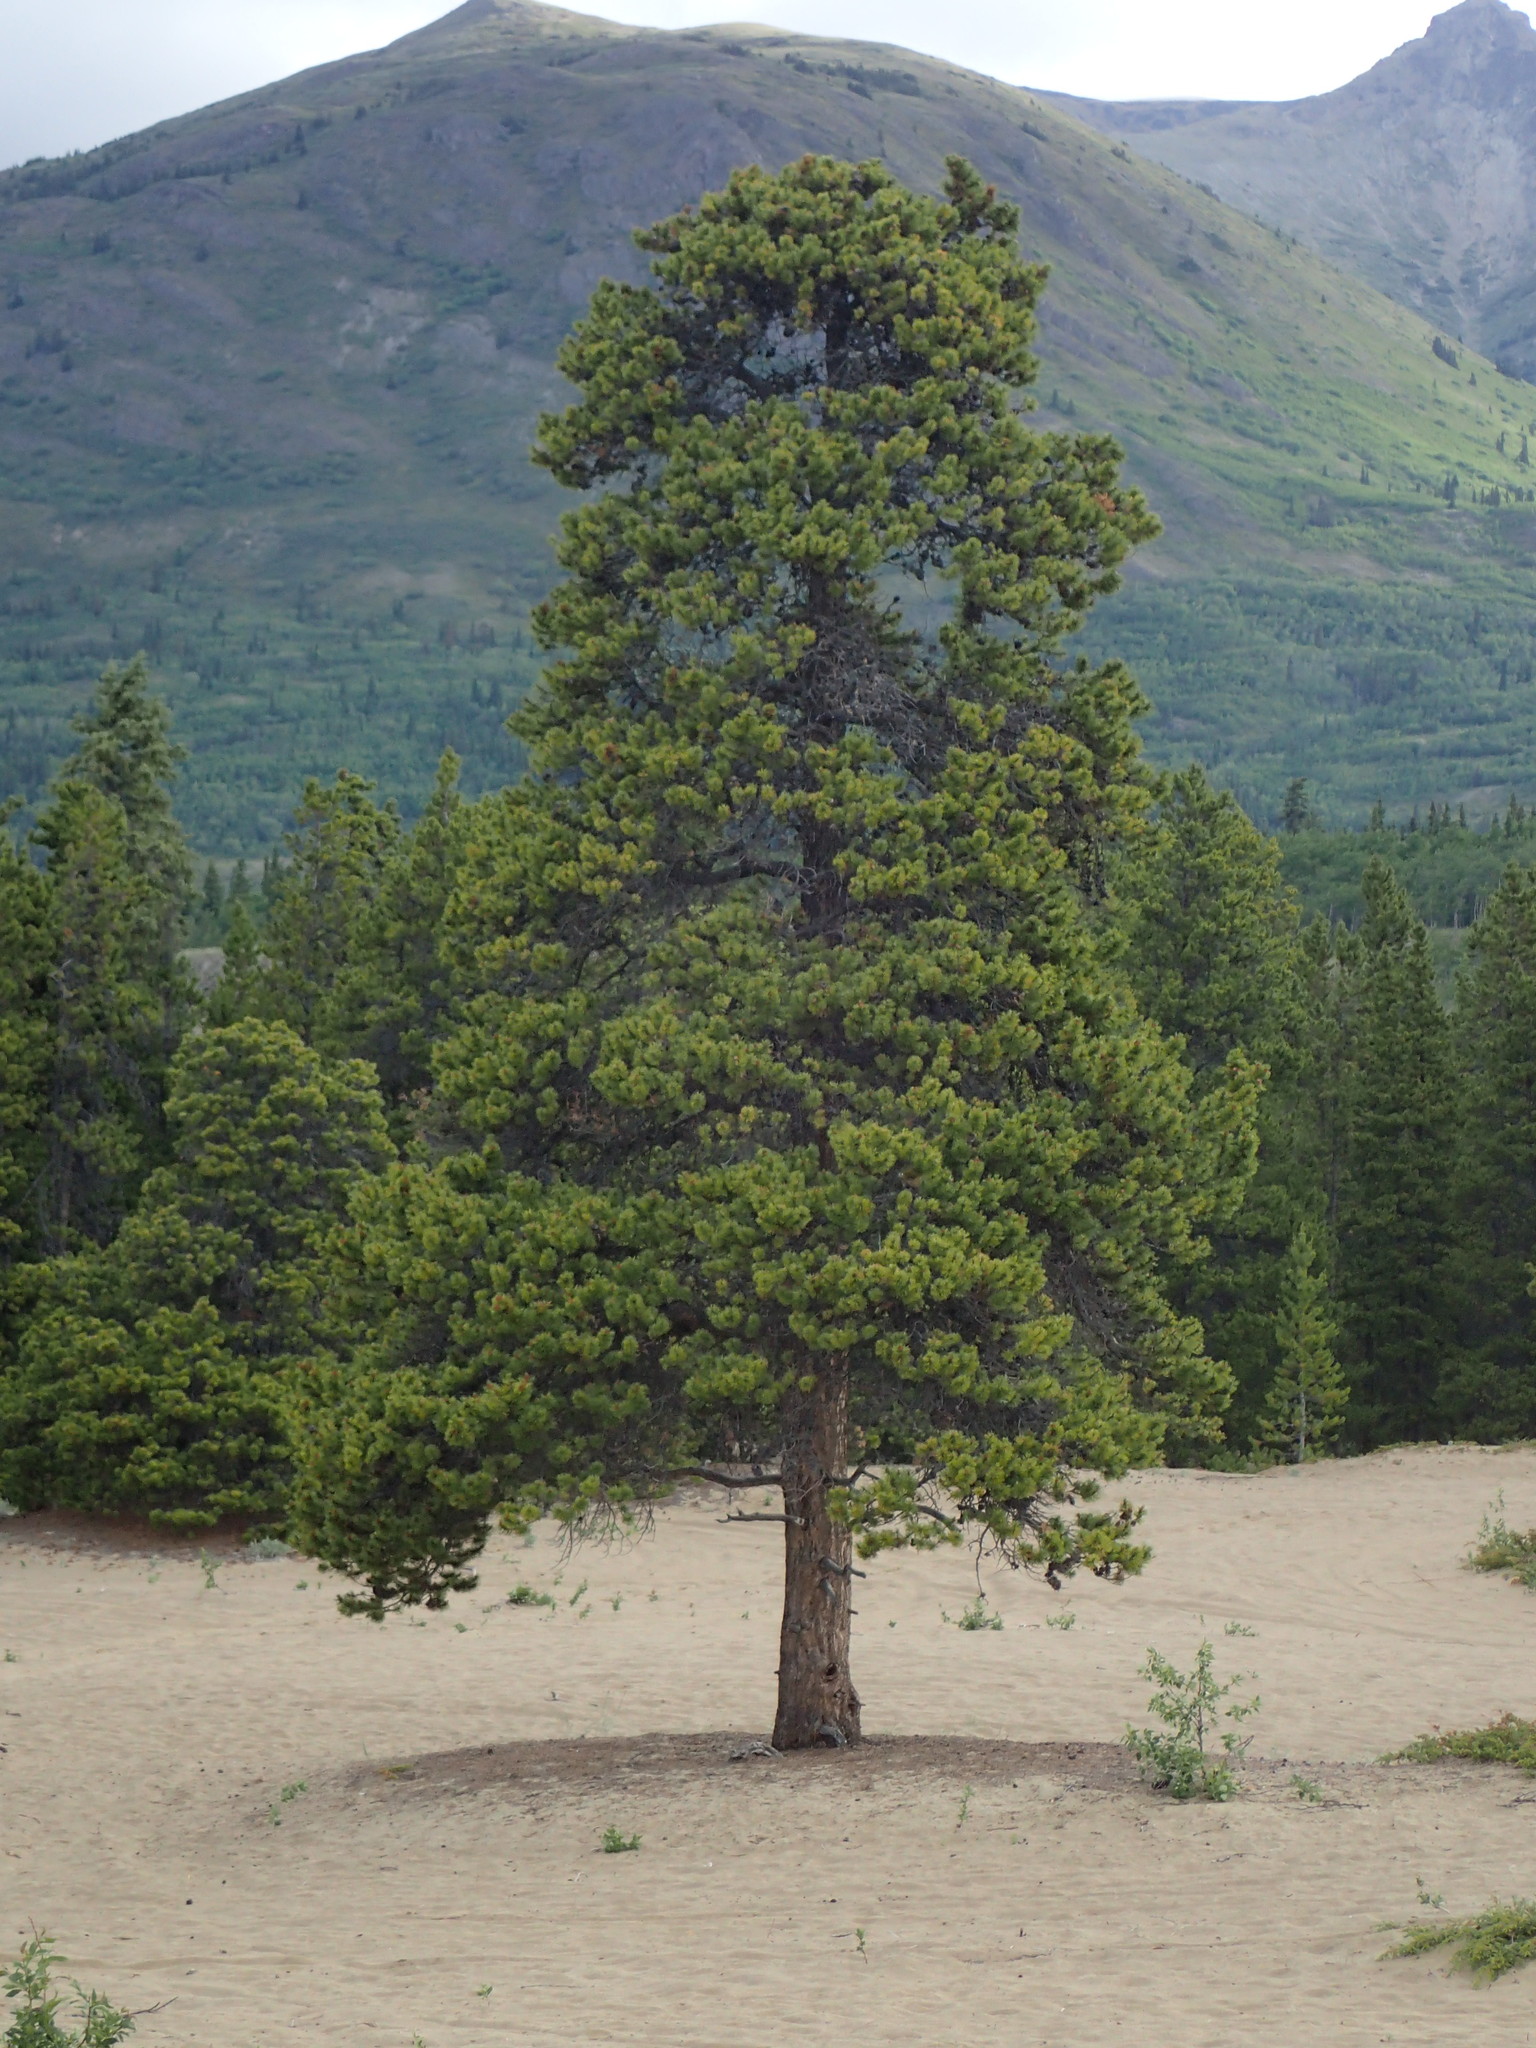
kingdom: Plantae
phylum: Tracheophyta
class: Pinopsida
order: Pinales
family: Pinaceae
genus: Pinus
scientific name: Pinus contorta
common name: Lodgepole pine
